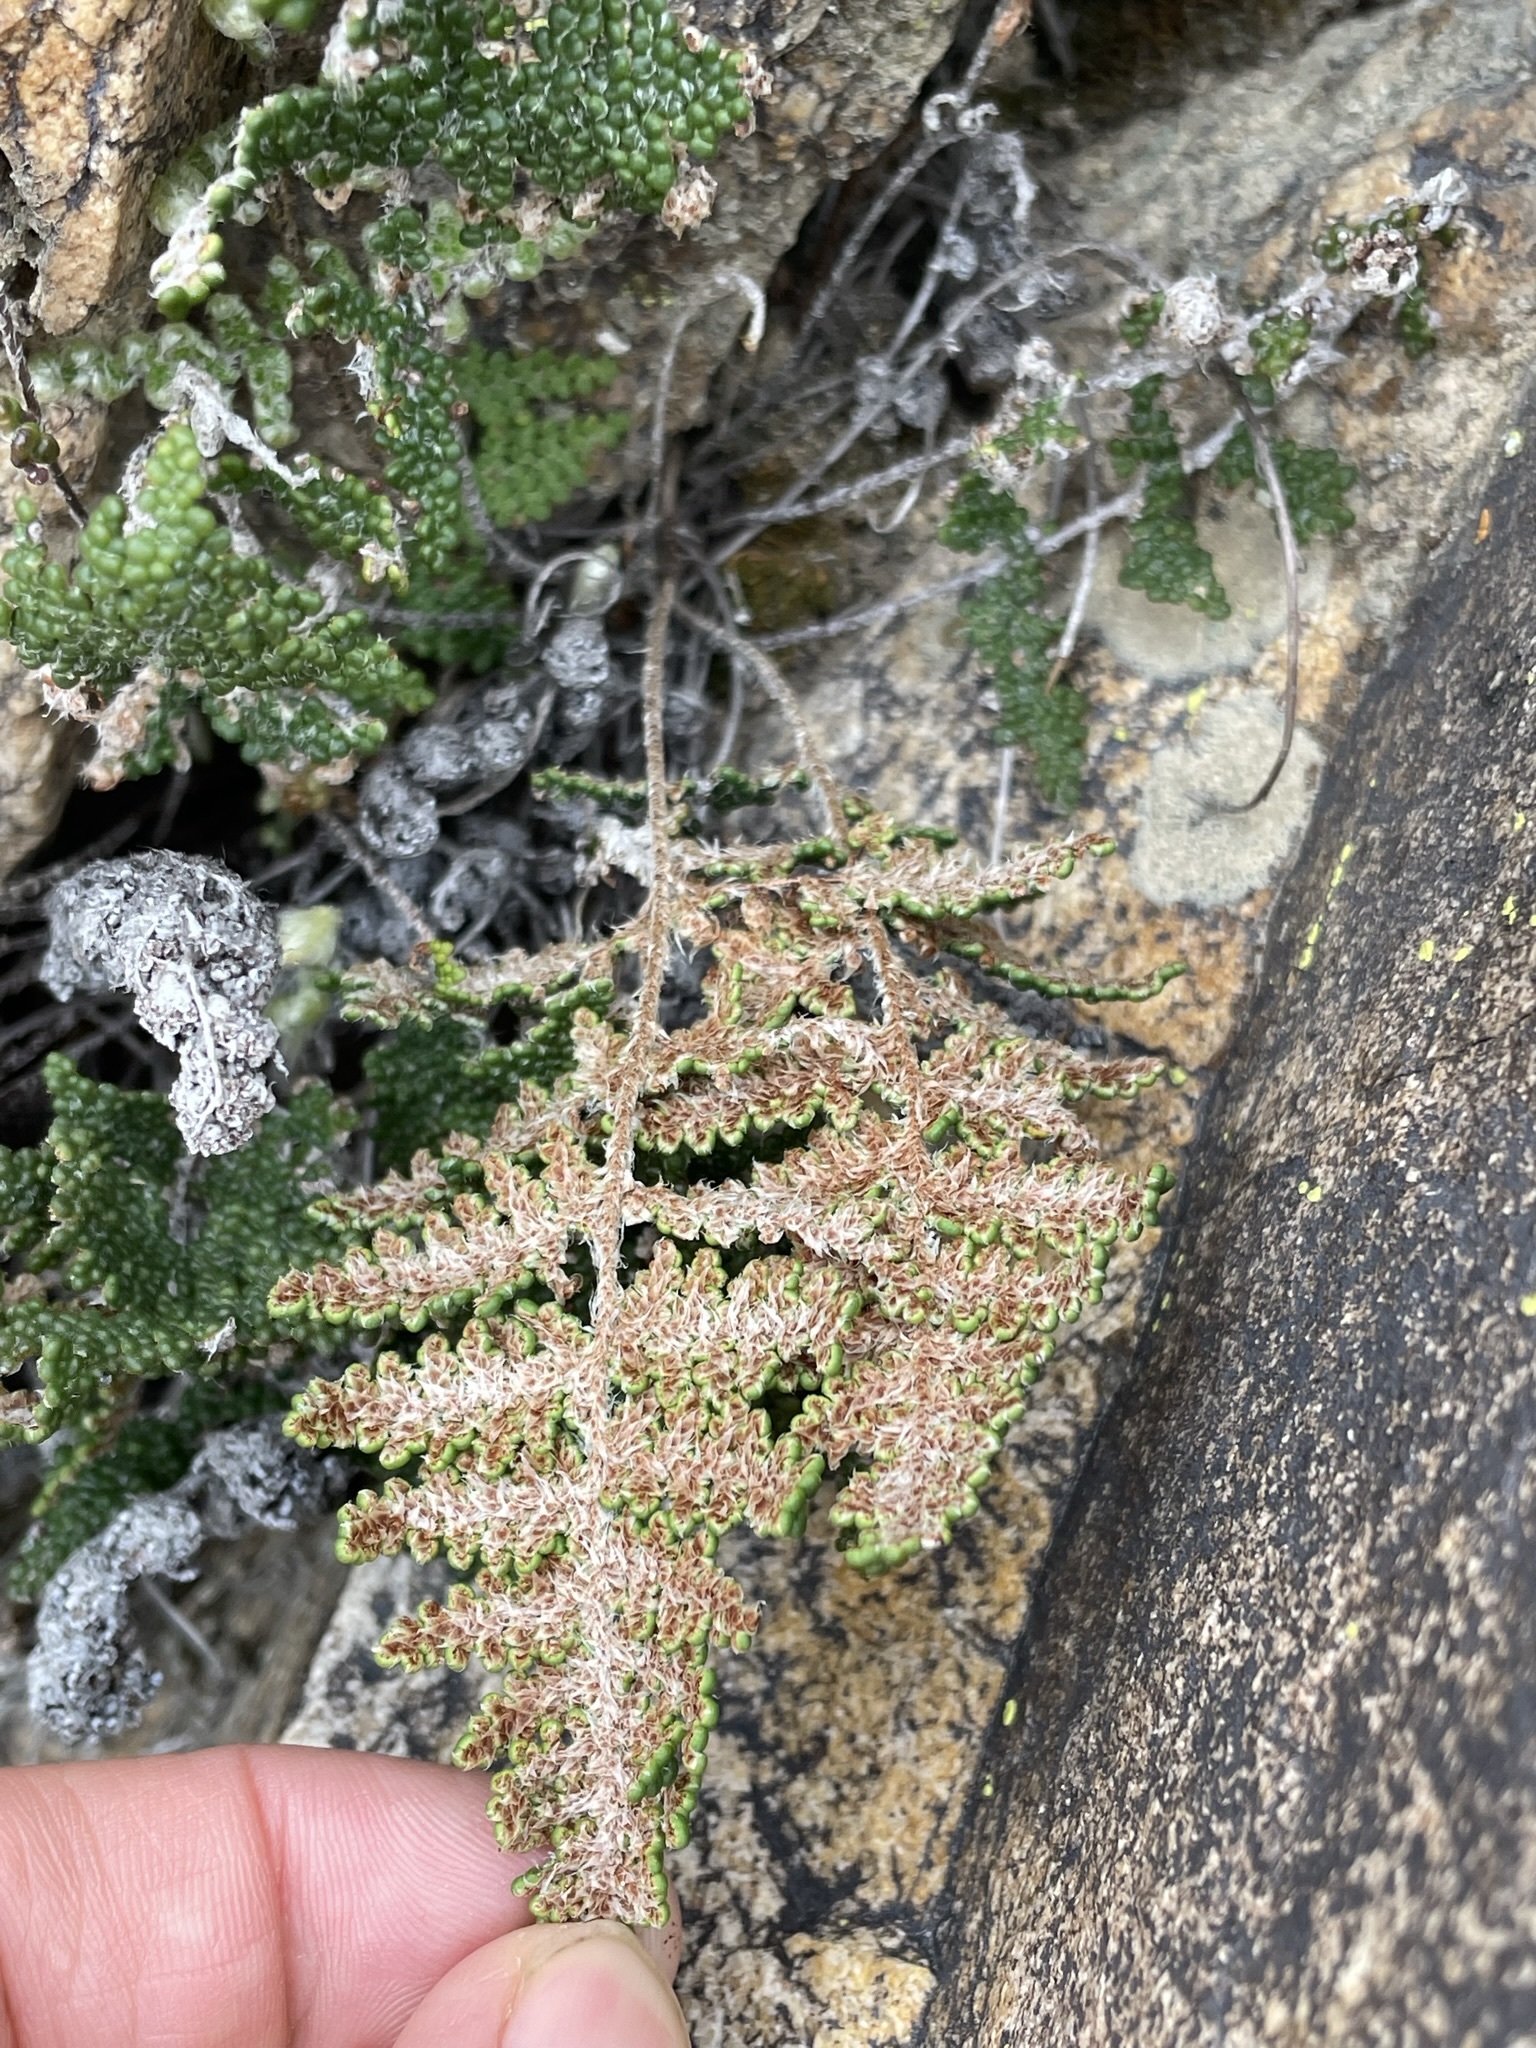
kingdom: Plantae
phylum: Tracheophyta
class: Polypodiopsida
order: Polypodiales
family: Pteridaceae
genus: Myriopteris
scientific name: Myriopteris covillei
